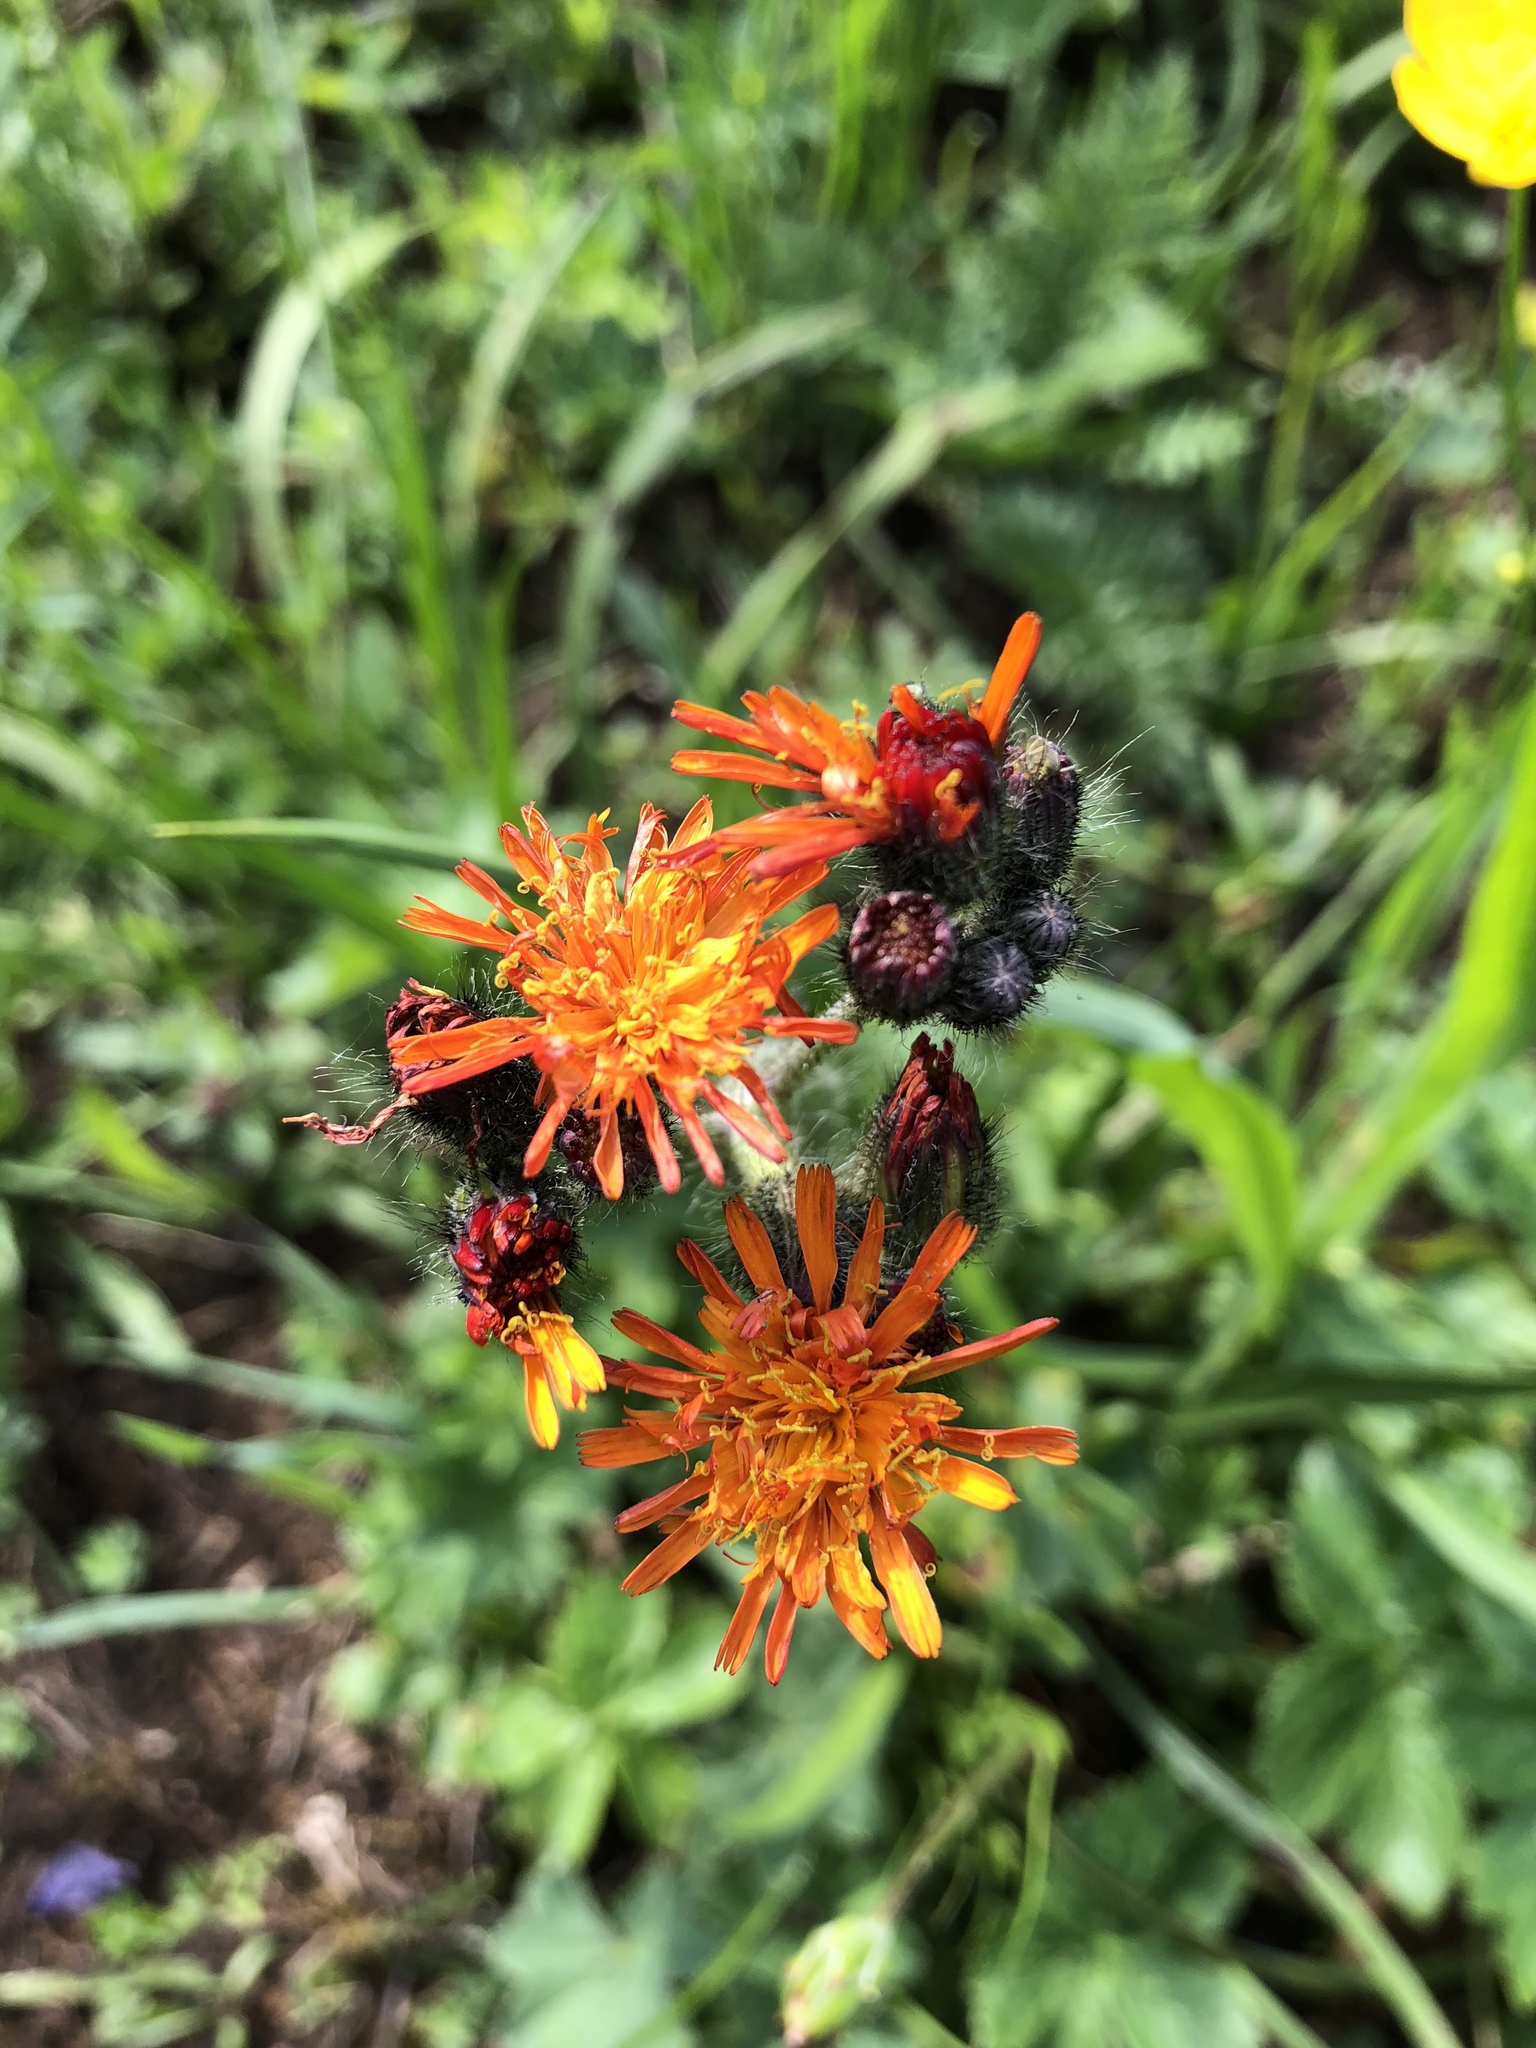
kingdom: Plantae
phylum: Tracheophyta
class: Magnoliopsida
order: Asterales
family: Asteraceae
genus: Pilosella
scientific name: Pilosella aurantiaca
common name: Fox-and-cubs
